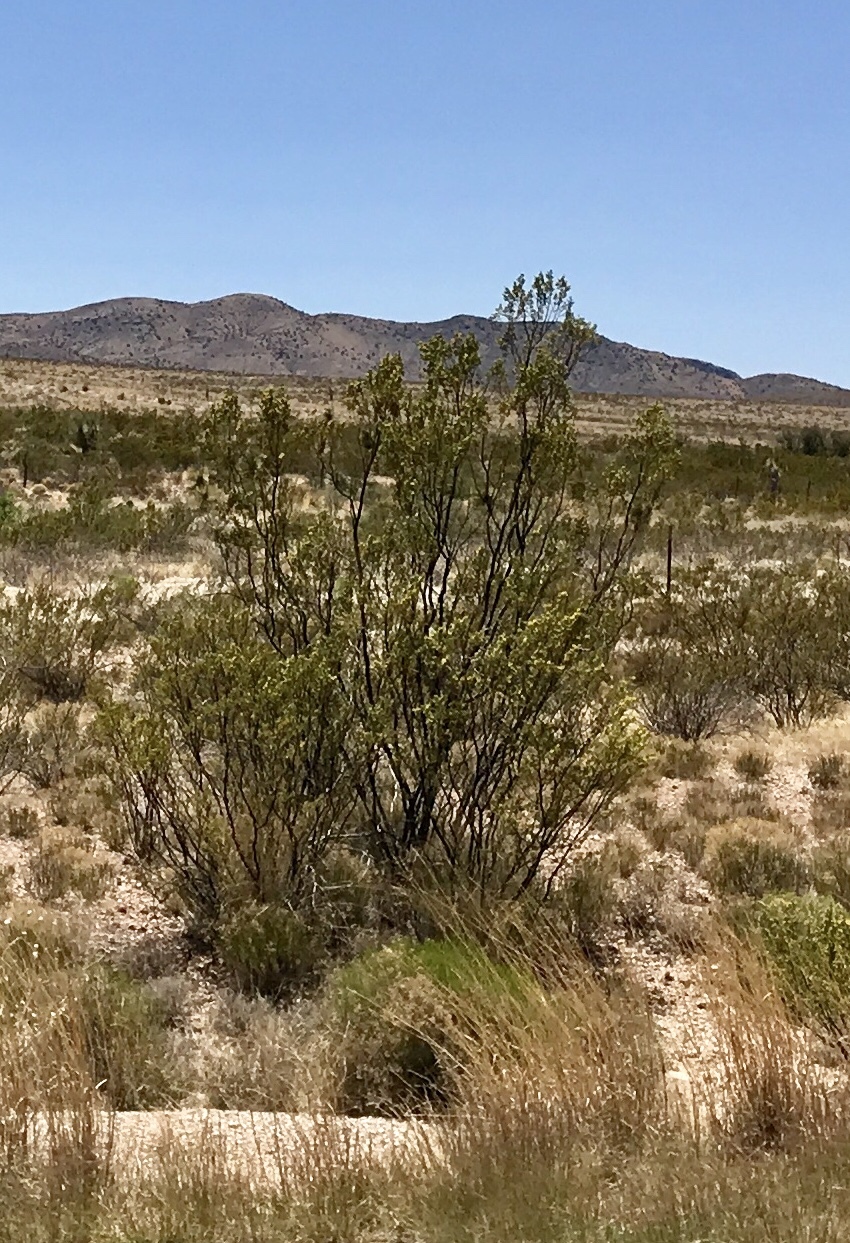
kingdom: Plantae
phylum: Tracheophyta
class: Magnoliopsida
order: Zygophyllales
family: Zygophyllaceae
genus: Larrea
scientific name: Larrea tridentata
